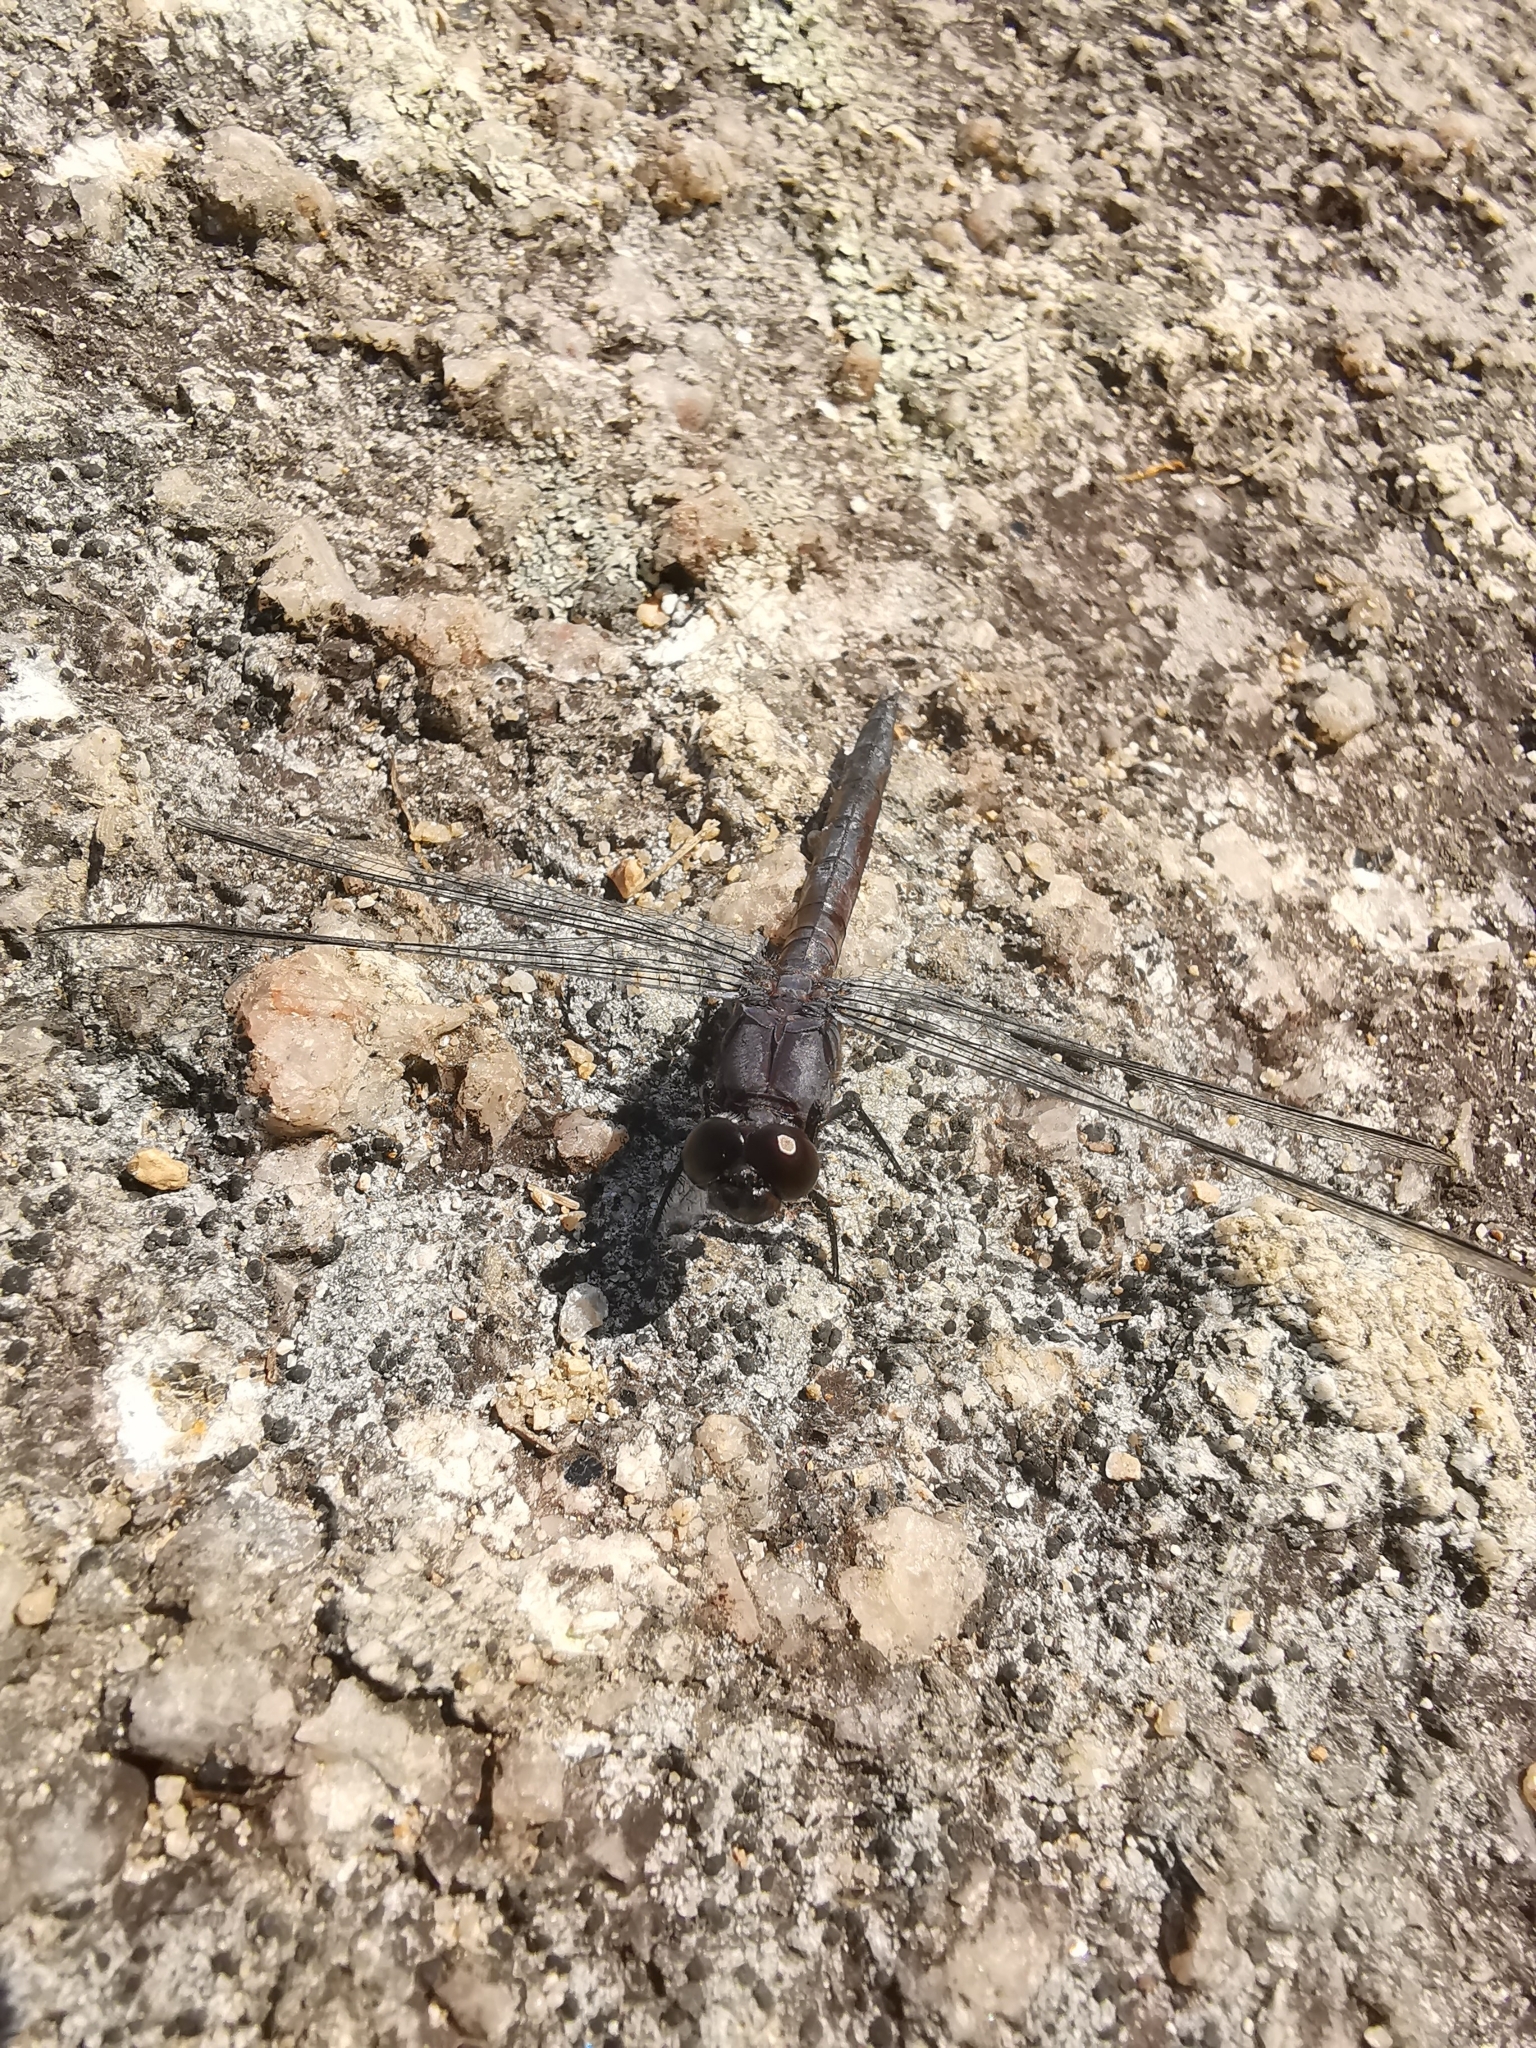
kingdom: Animalia
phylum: Arthropoda
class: Insecta
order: Odonata
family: Libellulidae
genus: Libellula
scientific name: Libellula incesta
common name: Slaty skimmer
